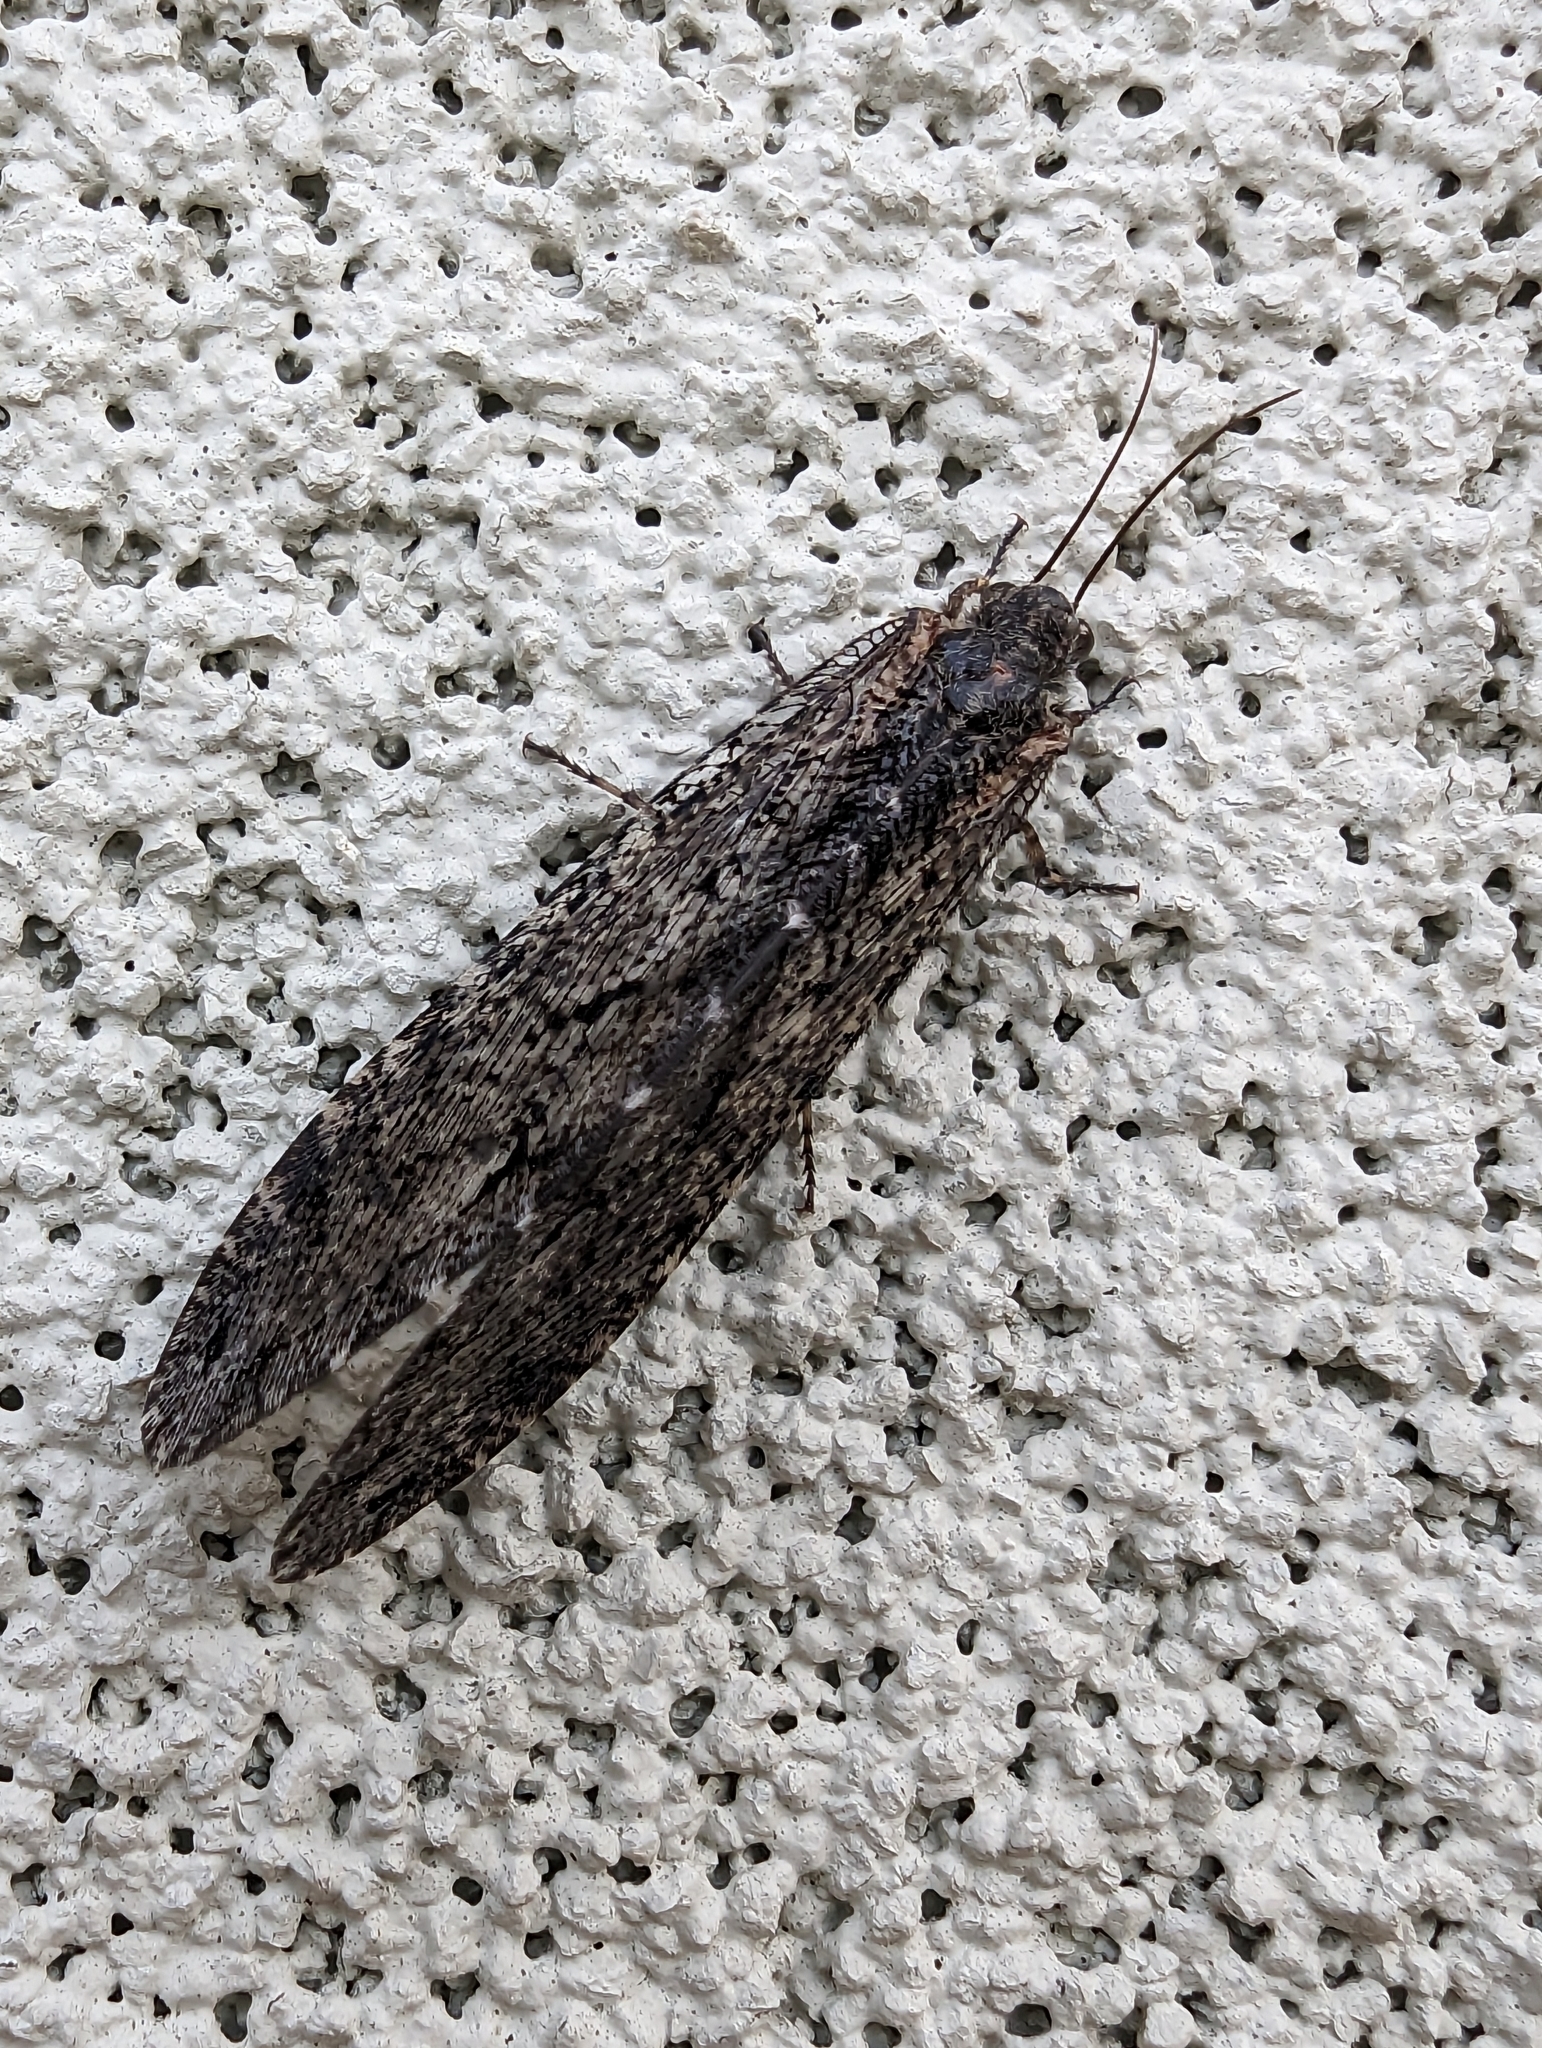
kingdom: Animalia
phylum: Arthropoda
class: Insecta
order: Neuroptera
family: Ithonidae
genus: Polystoechotes
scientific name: Polystoechotes punctata
